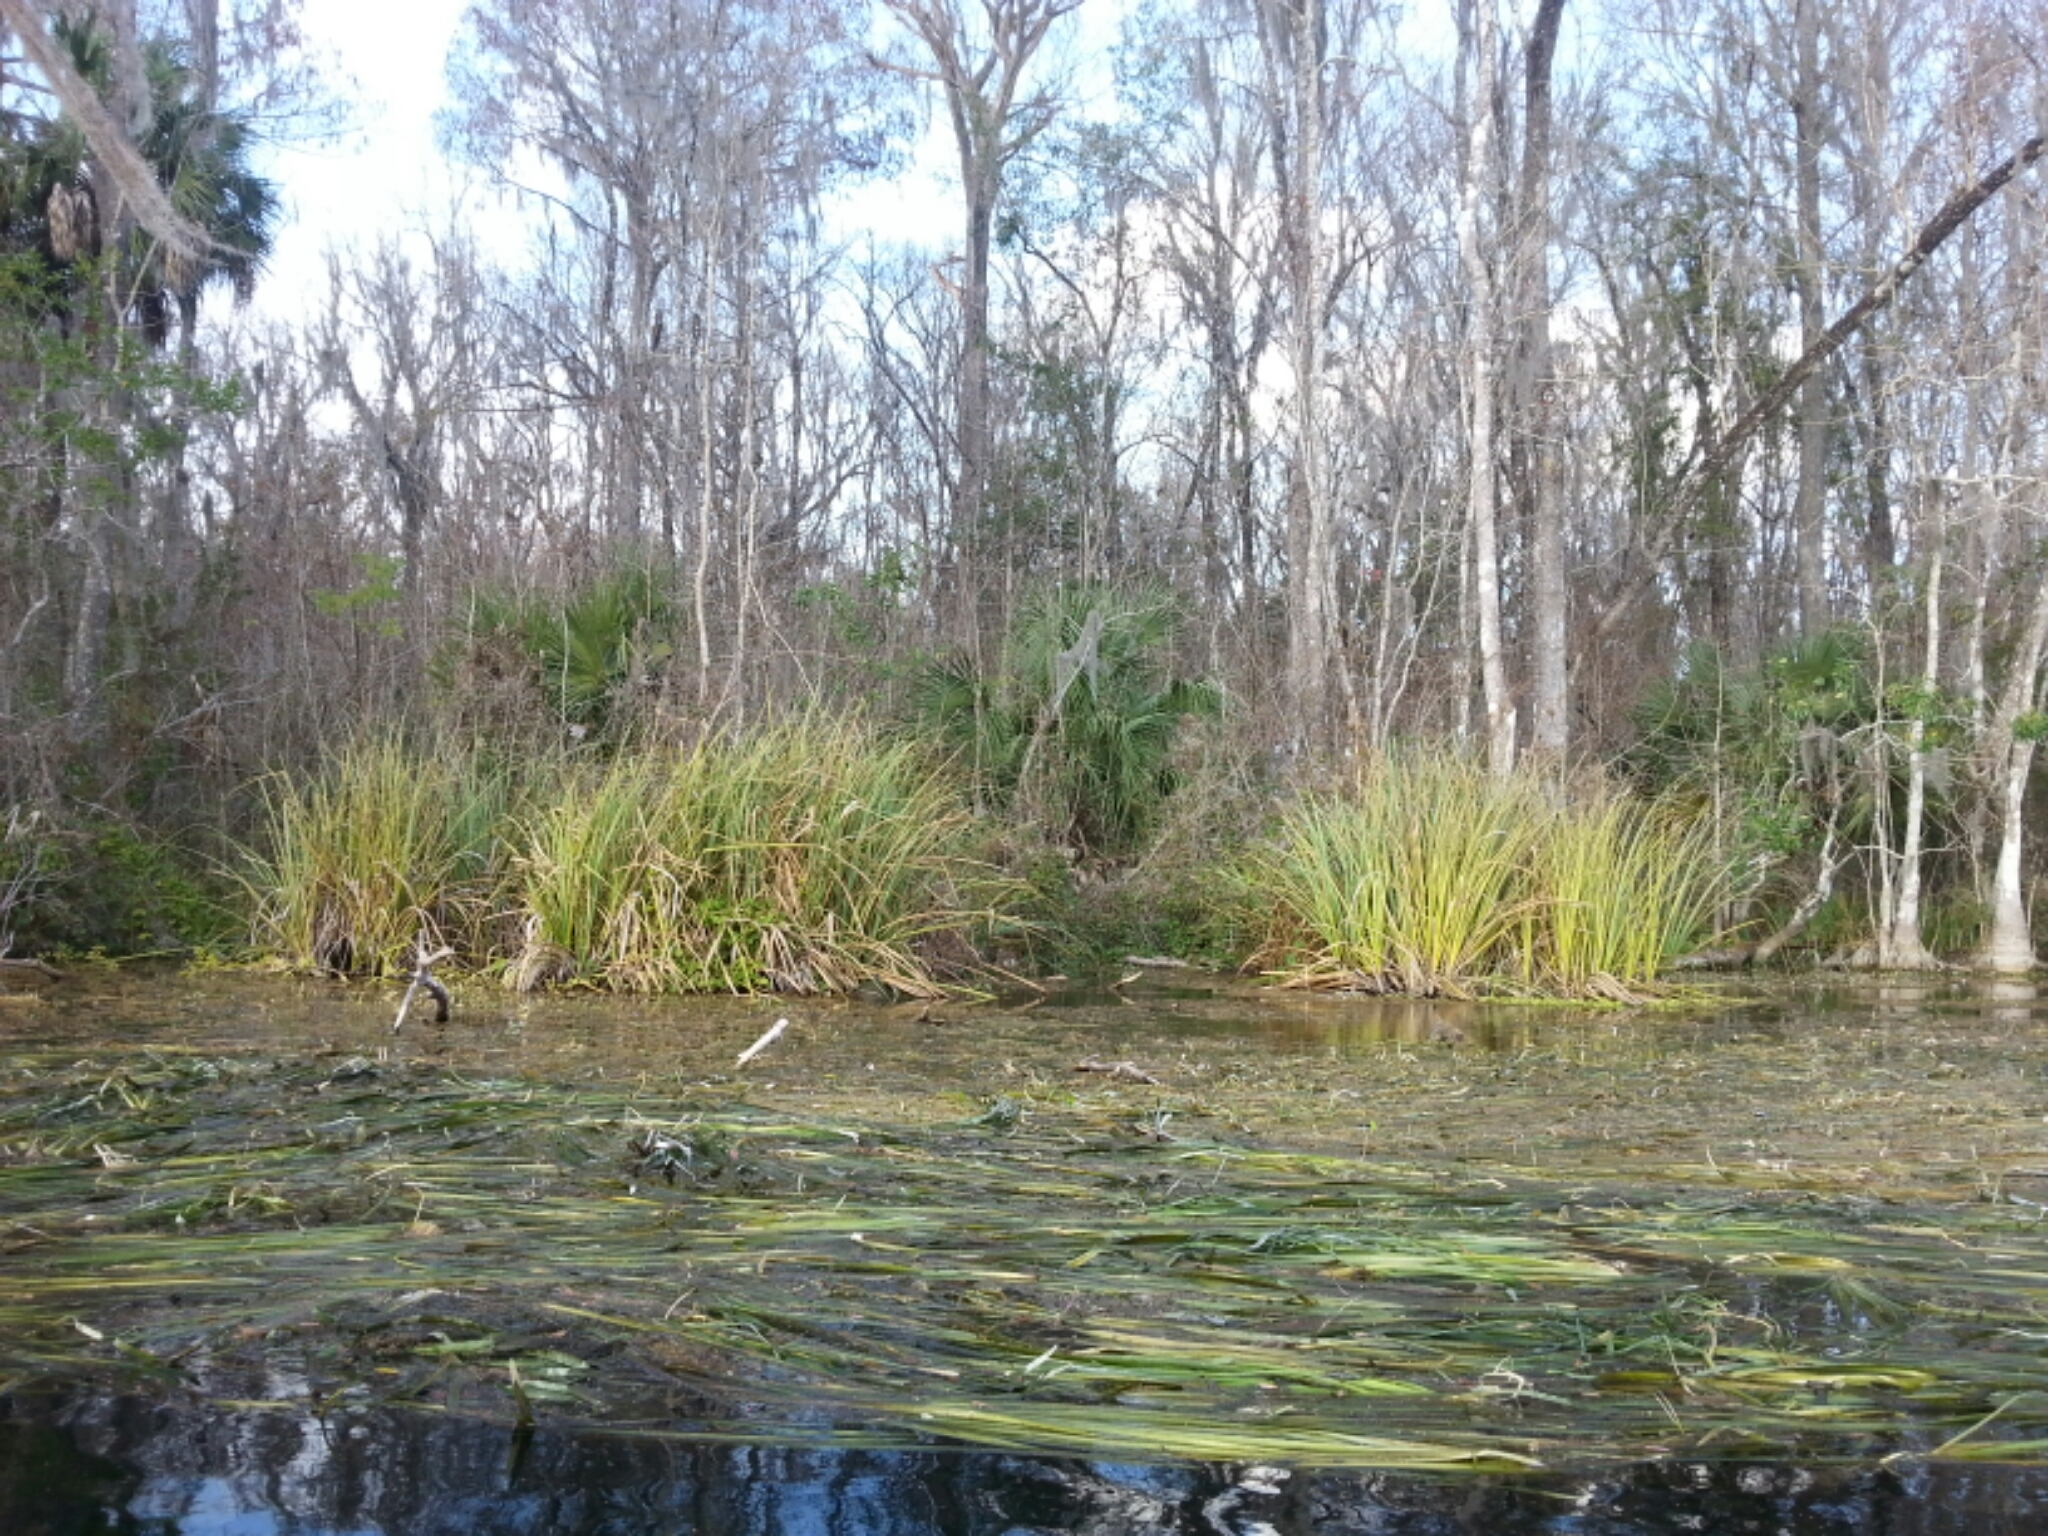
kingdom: Plantae
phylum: Tracheophyta
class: Liliopsida
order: Poales
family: Cyperaceae
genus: Cladium
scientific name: Cladium mariscus
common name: Great fen-sedge
